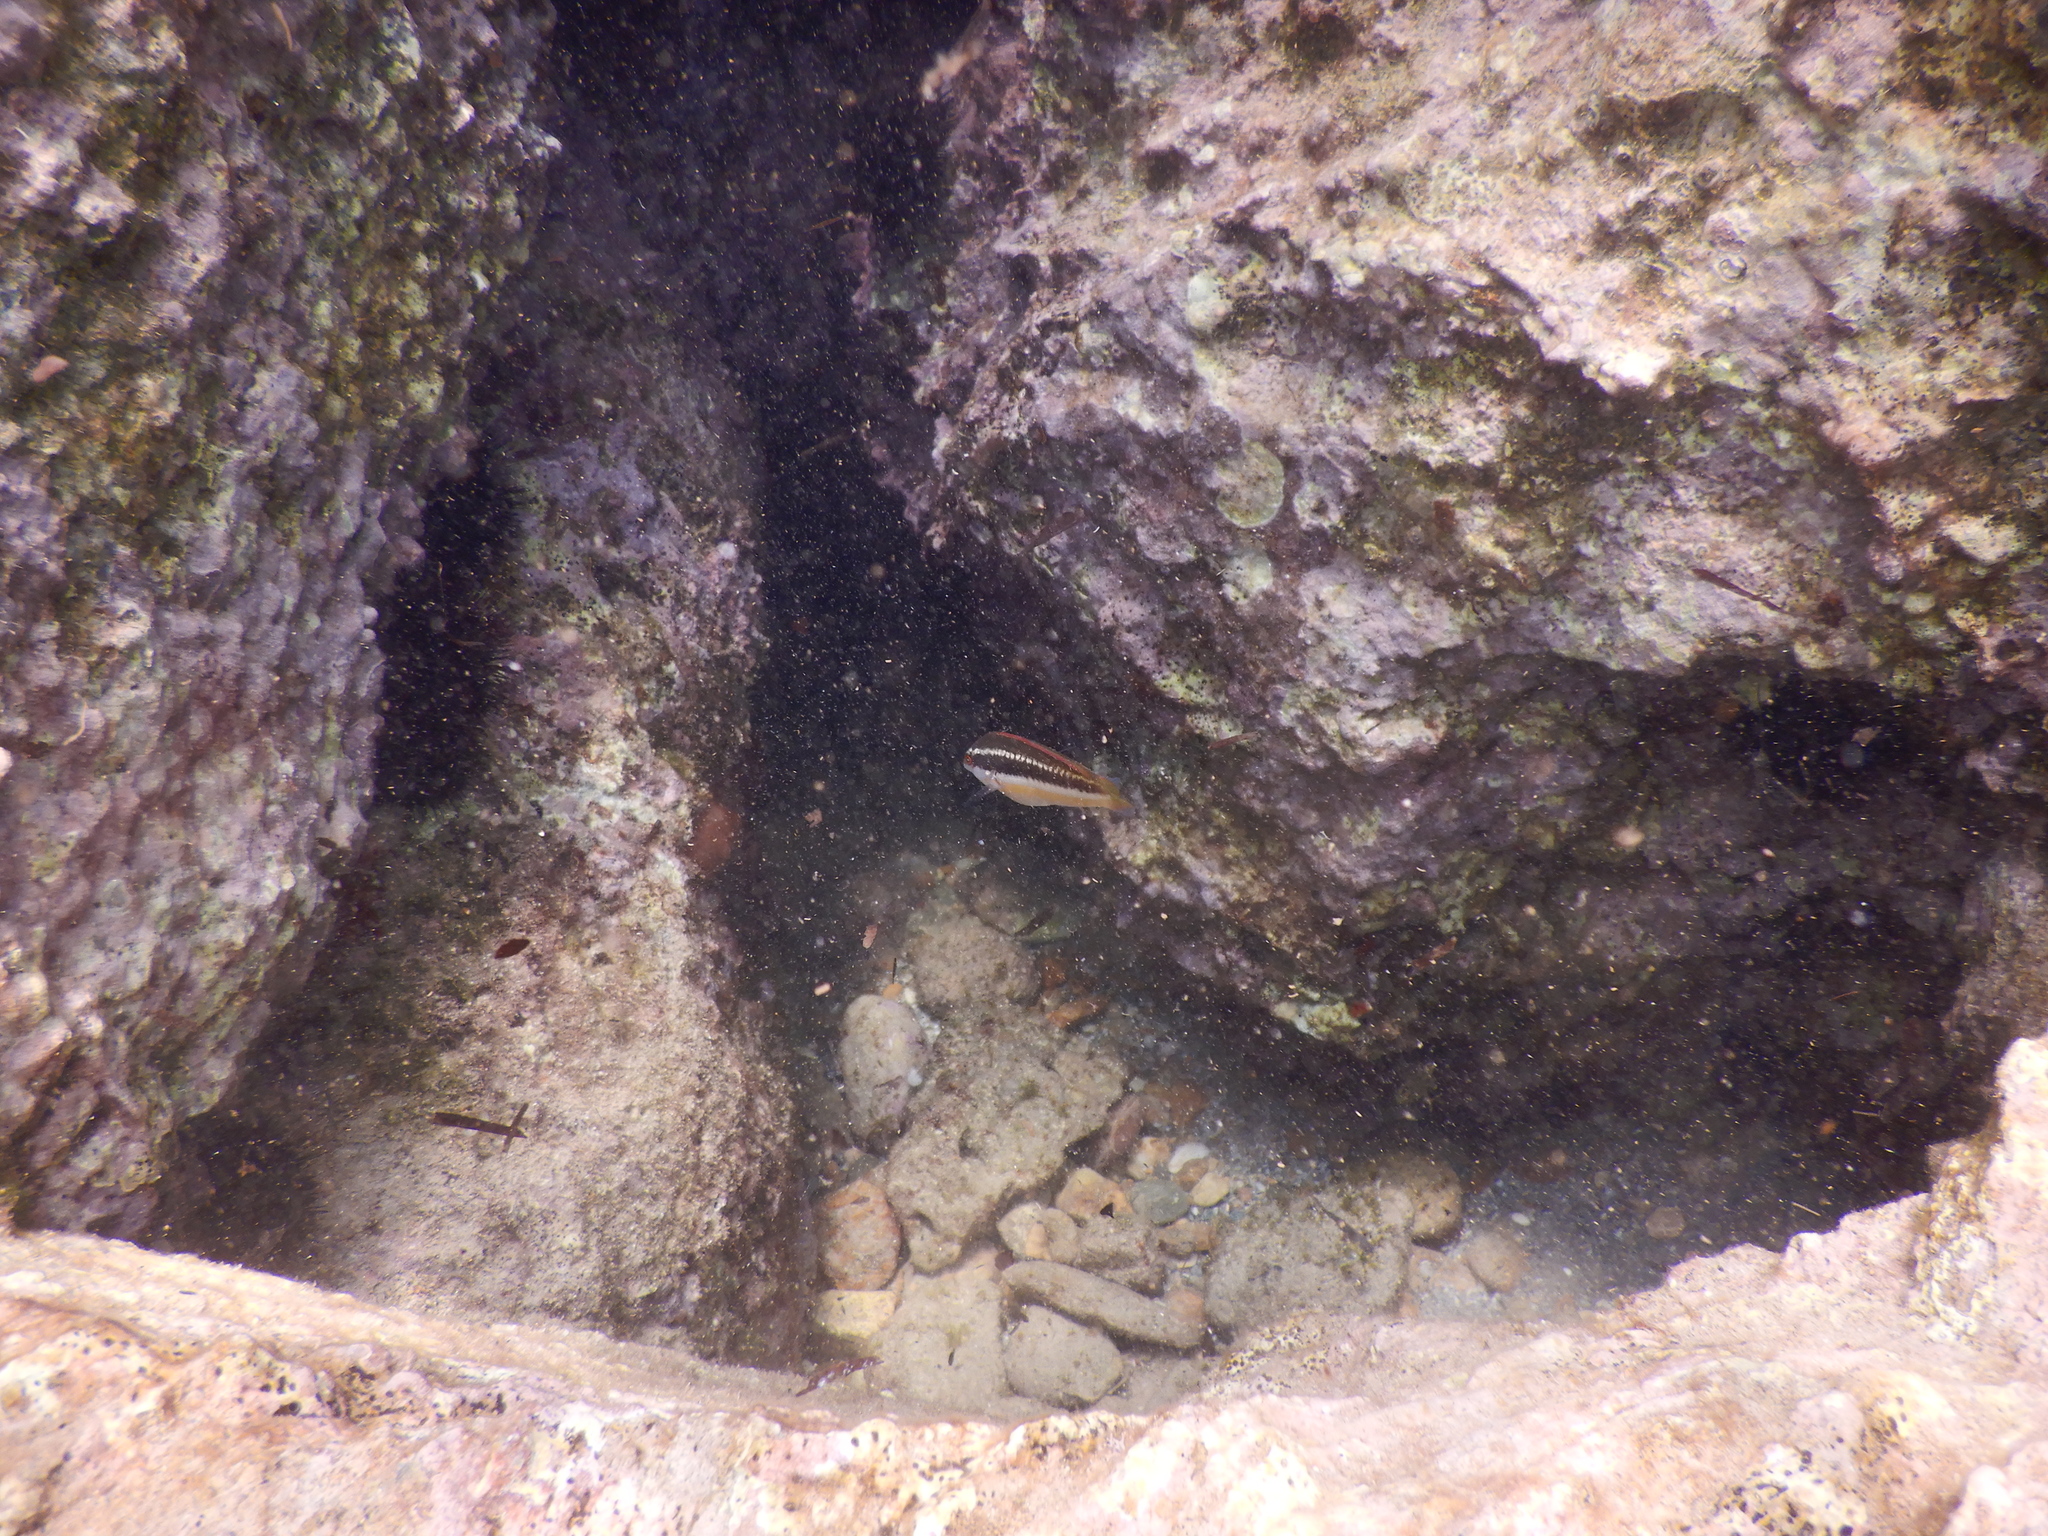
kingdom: Animalia
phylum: Chordata
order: Perciformes
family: Labridae
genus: Coris
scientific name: Coris julis
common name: Rainbow wrasse
